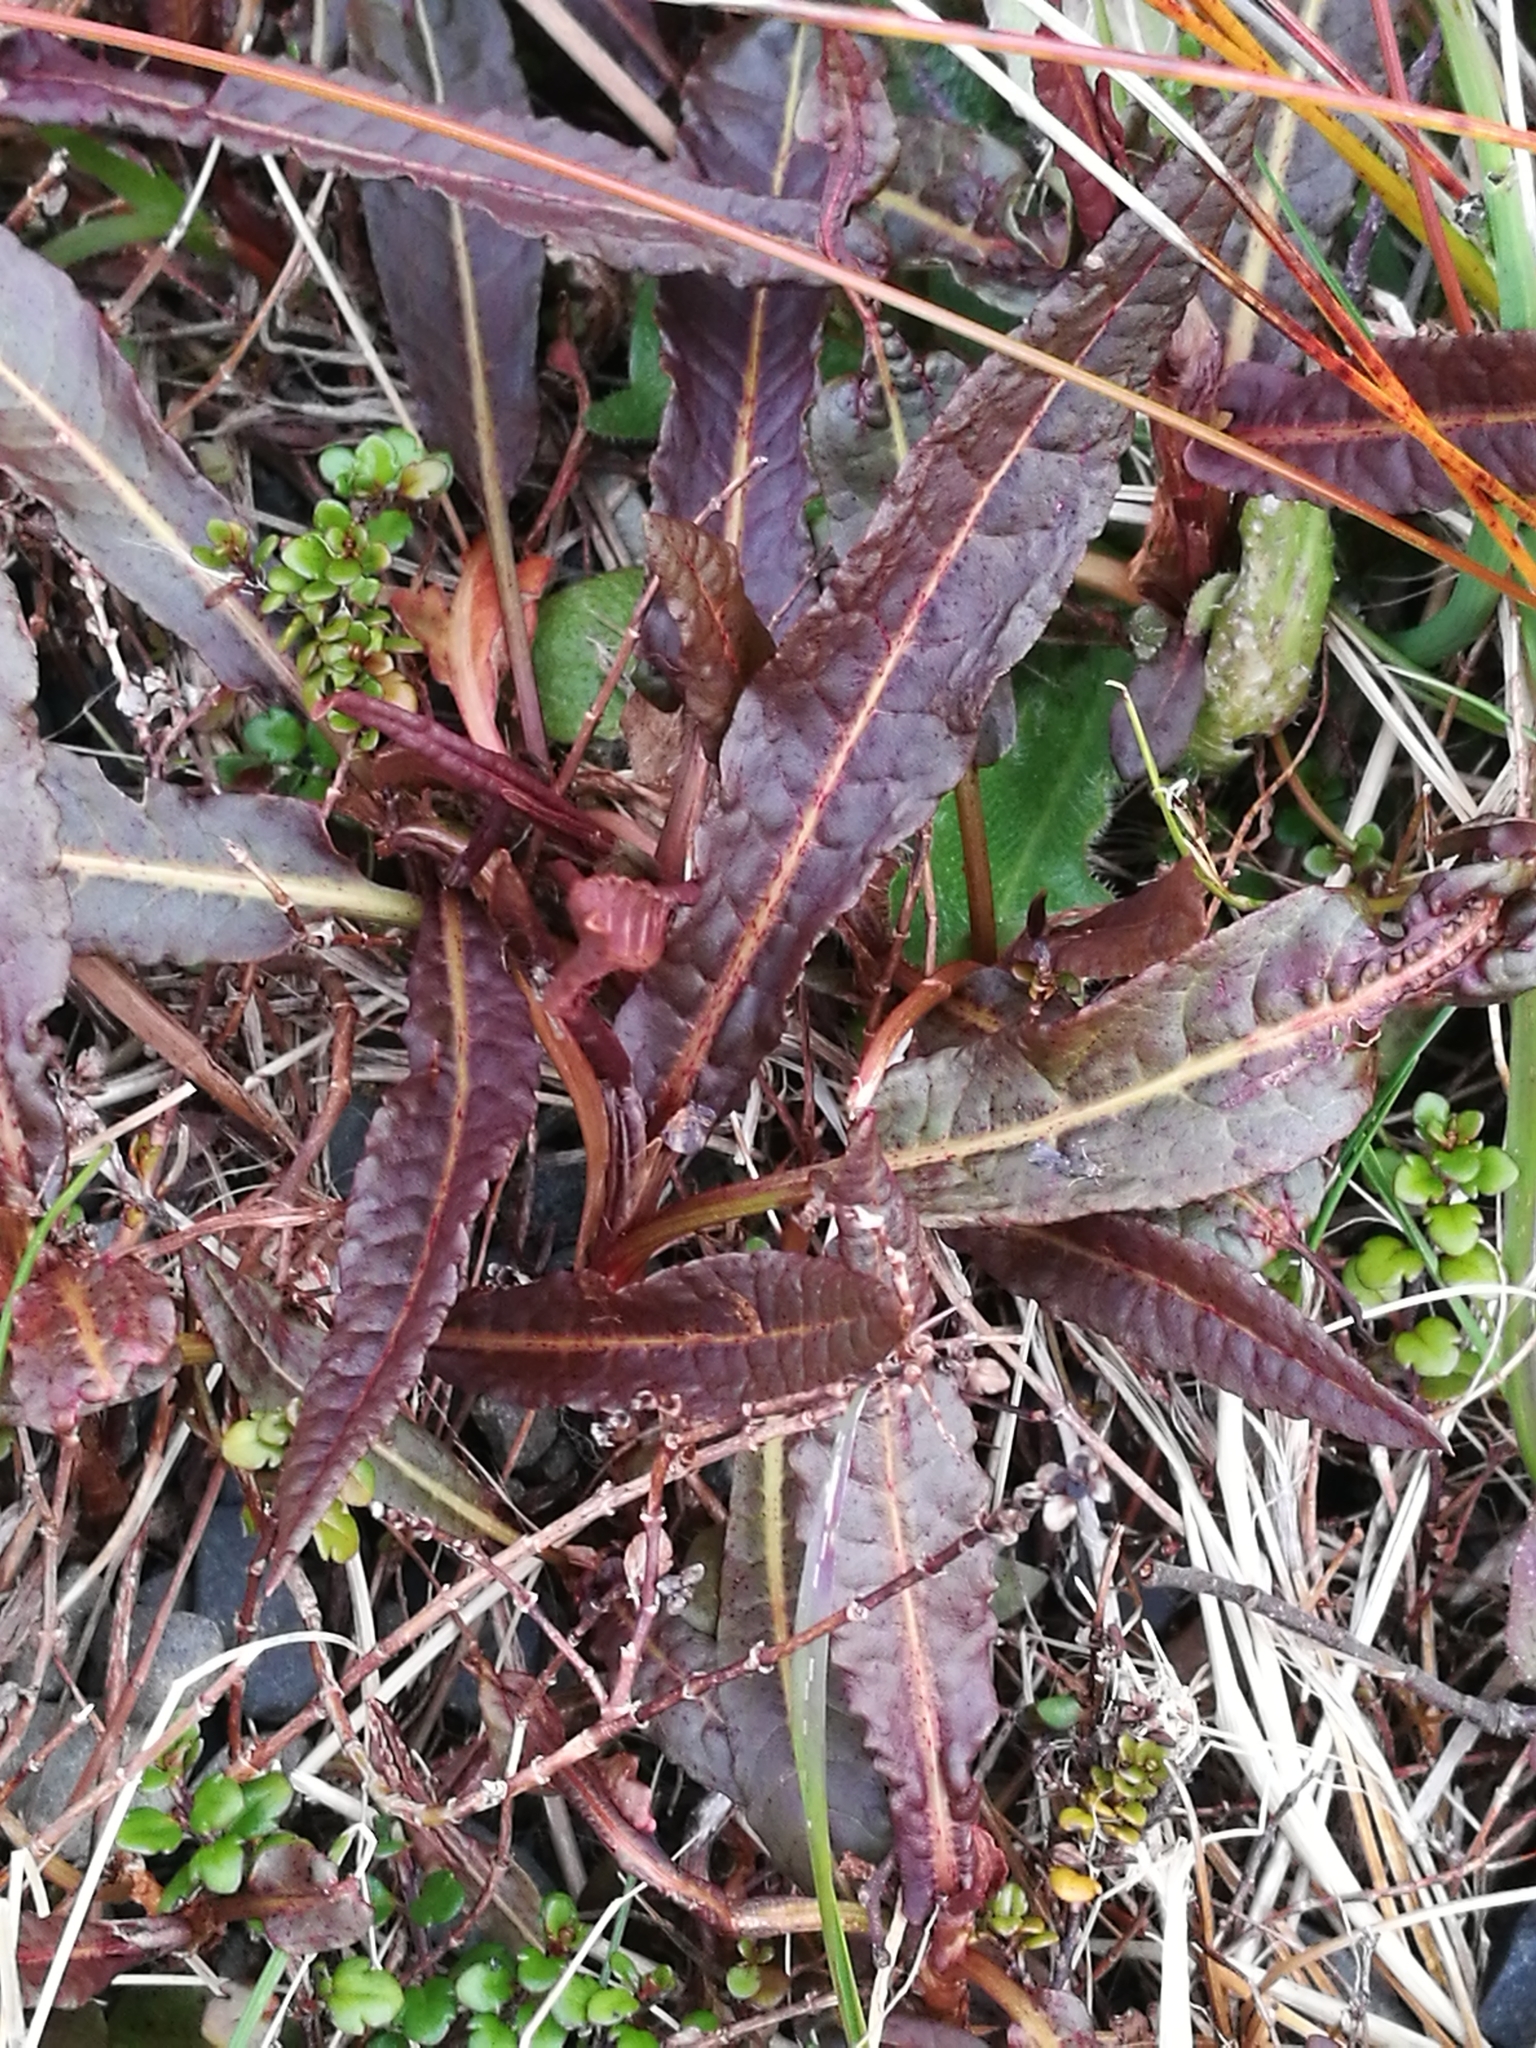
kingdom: Plantae
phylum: Tracheophyta
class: Magnoliopsida
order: Caryophyllales
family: Polygonaceae
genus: Rumex
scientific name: Rumex flexuosus
